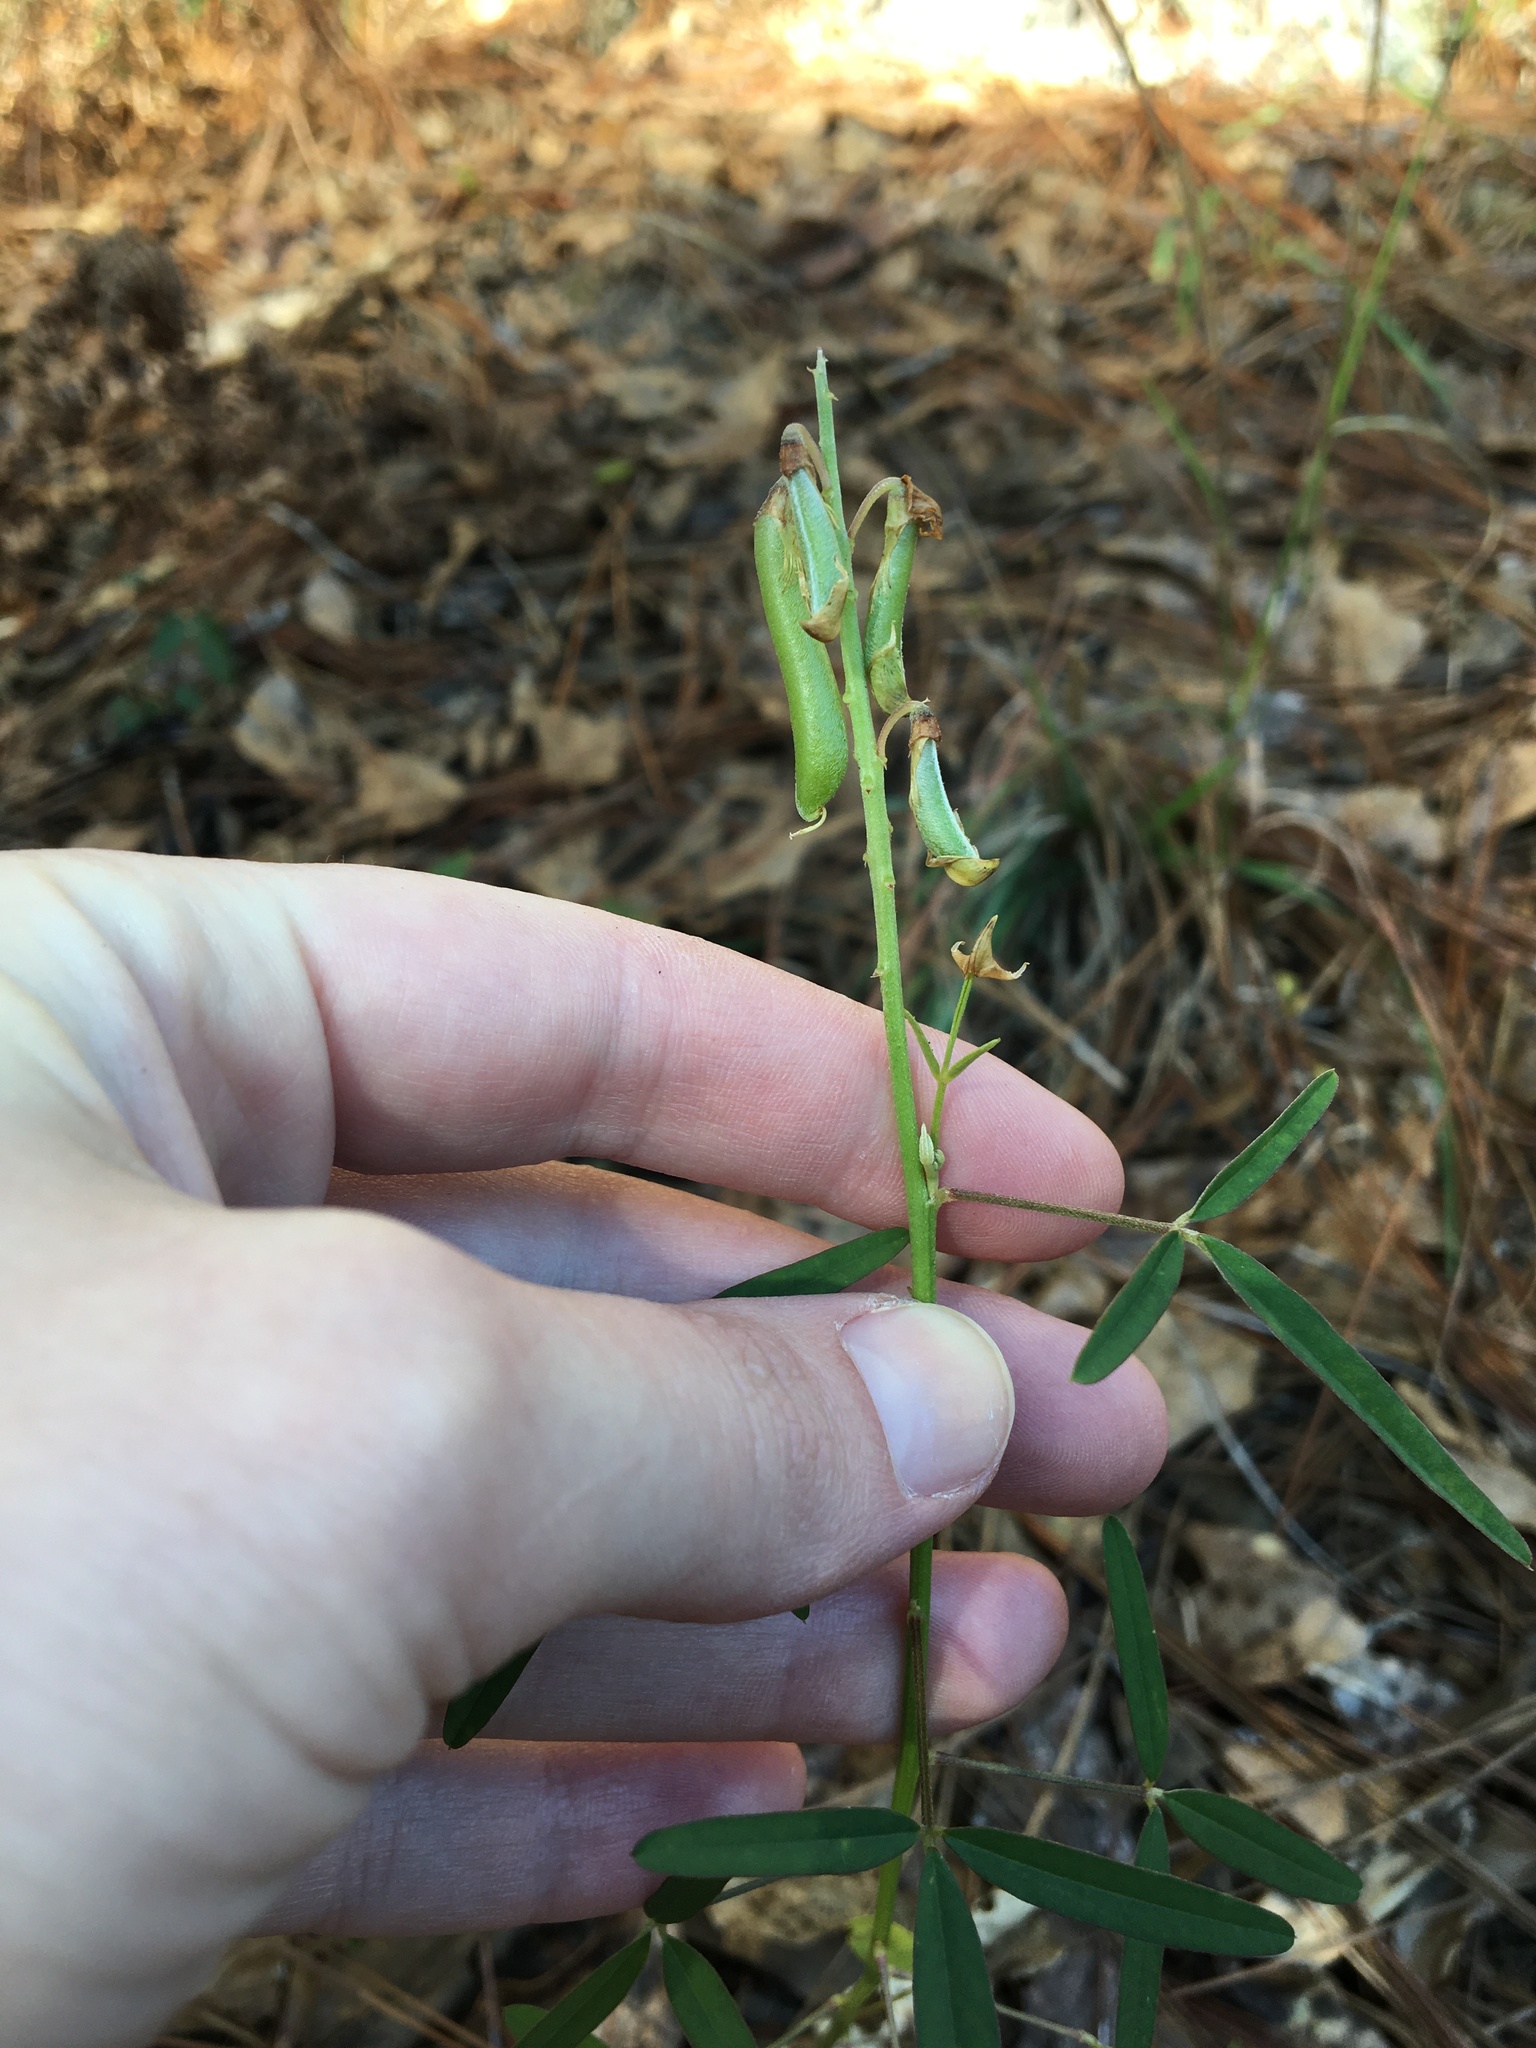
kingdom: Plantae
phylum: Tracheophyta
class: Magnoliopsida
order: Fabales
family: Fabaceae
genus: Crotalaria
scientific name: Crotalaria lanceolata
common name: Lanceleaf rattlebox
